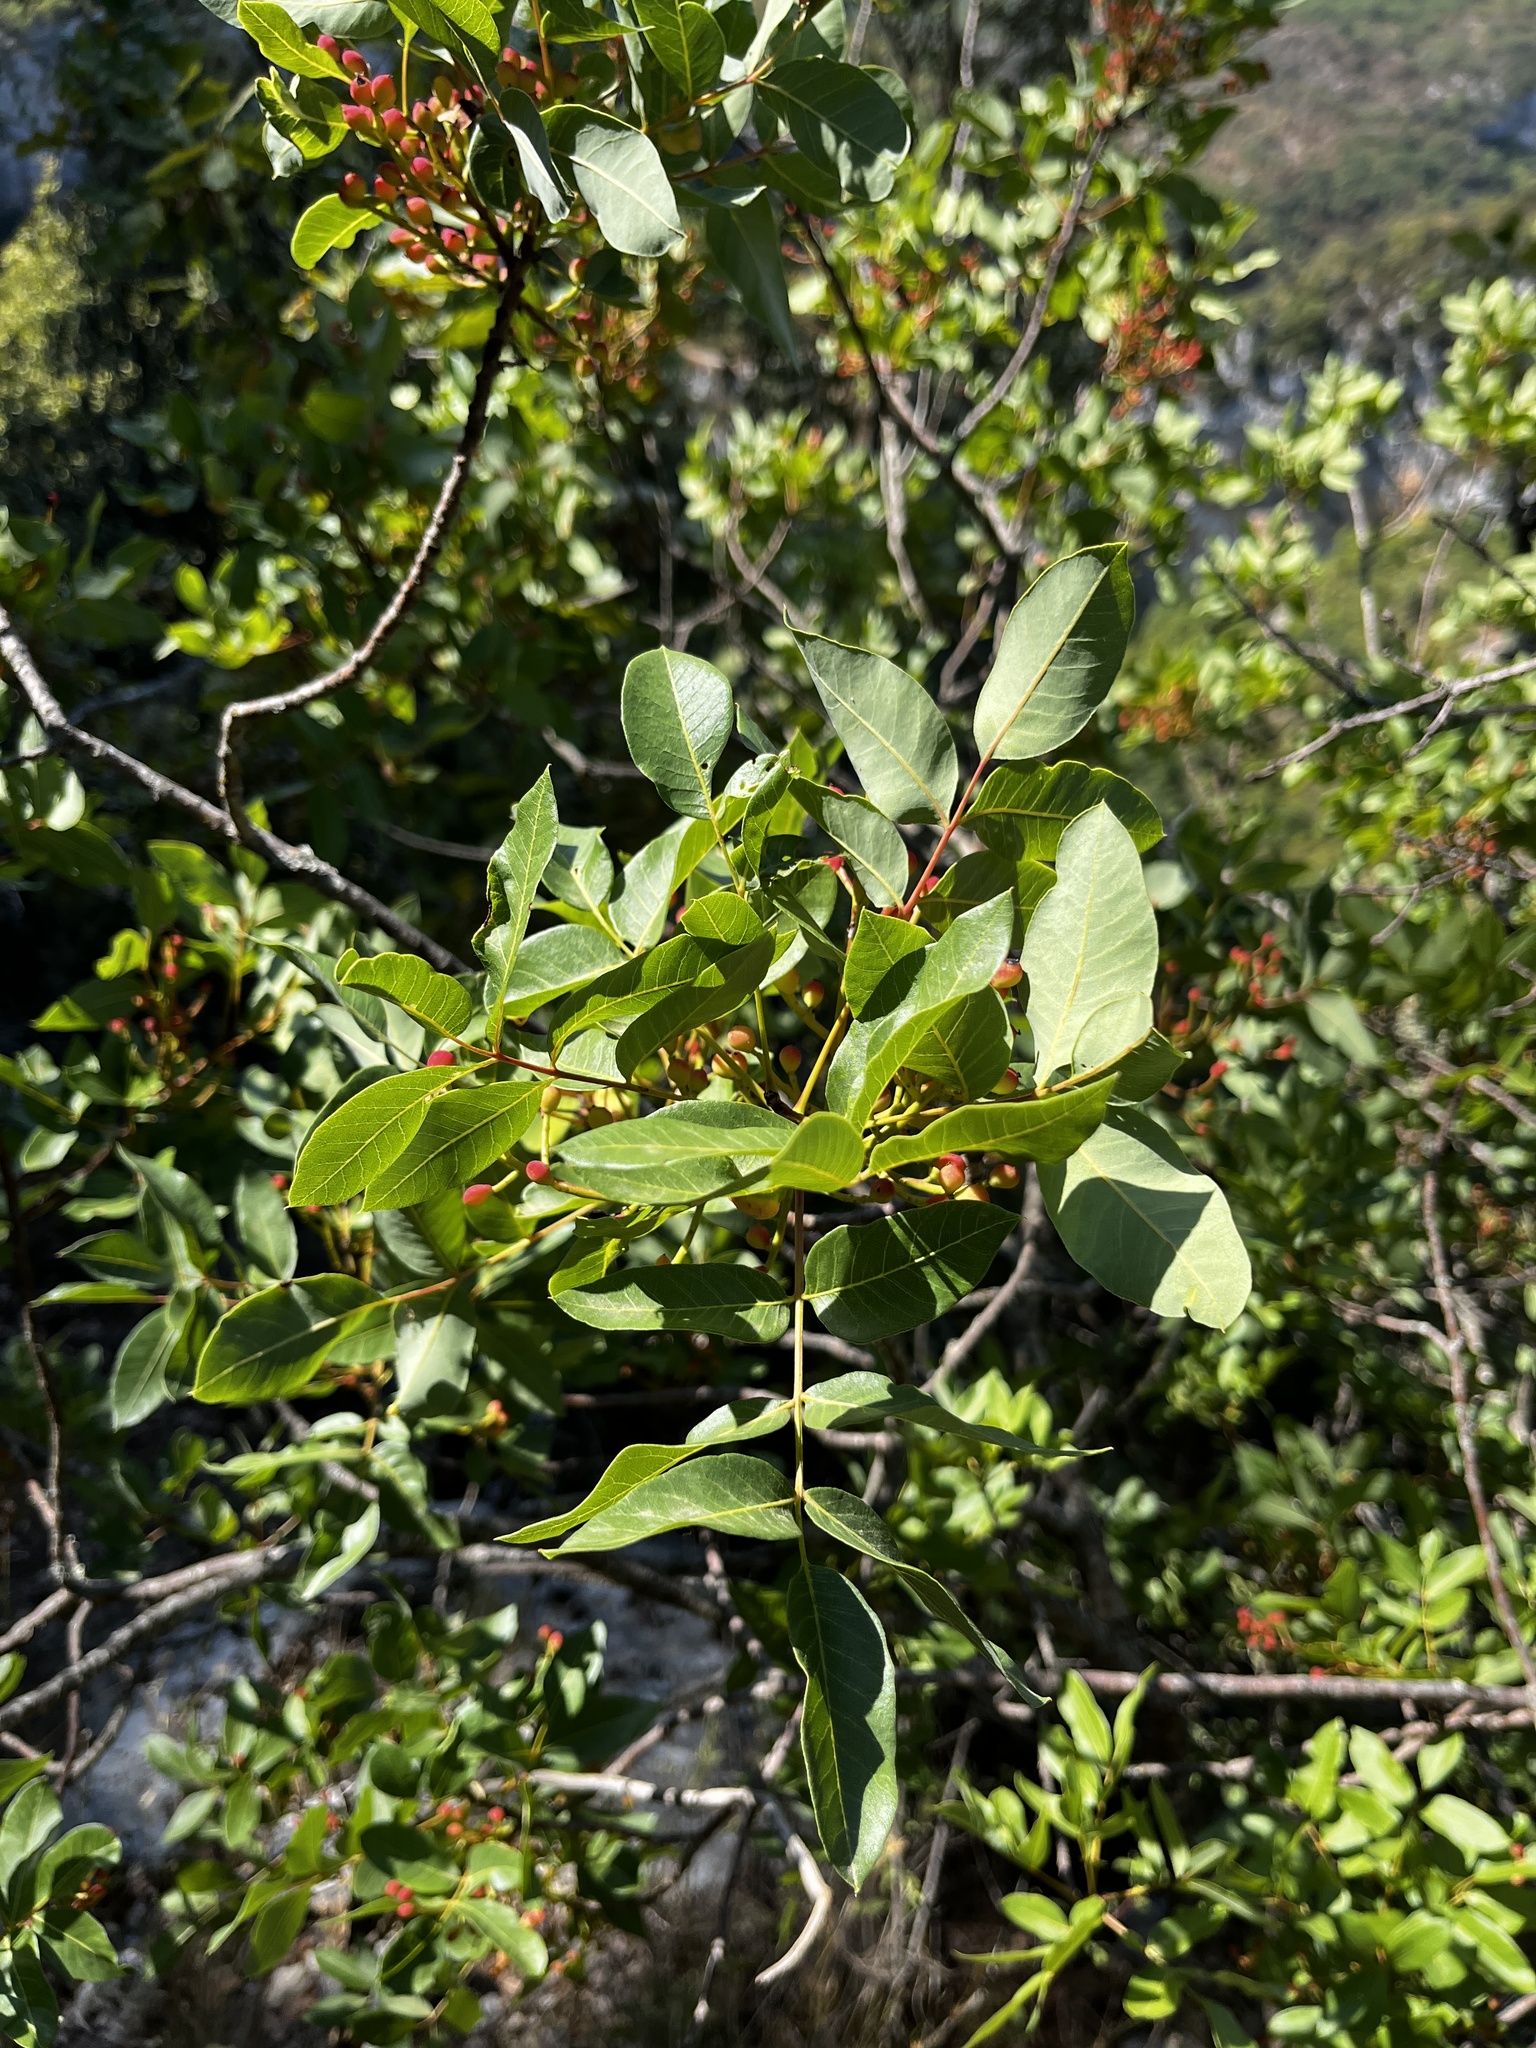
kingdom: Plantae
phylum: Tracheophyta
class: Magnoliopsida
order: Sapindales
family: Anacardiaceae
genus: Pistacia
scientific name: Pistacia terebinthus
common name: Terebinth
